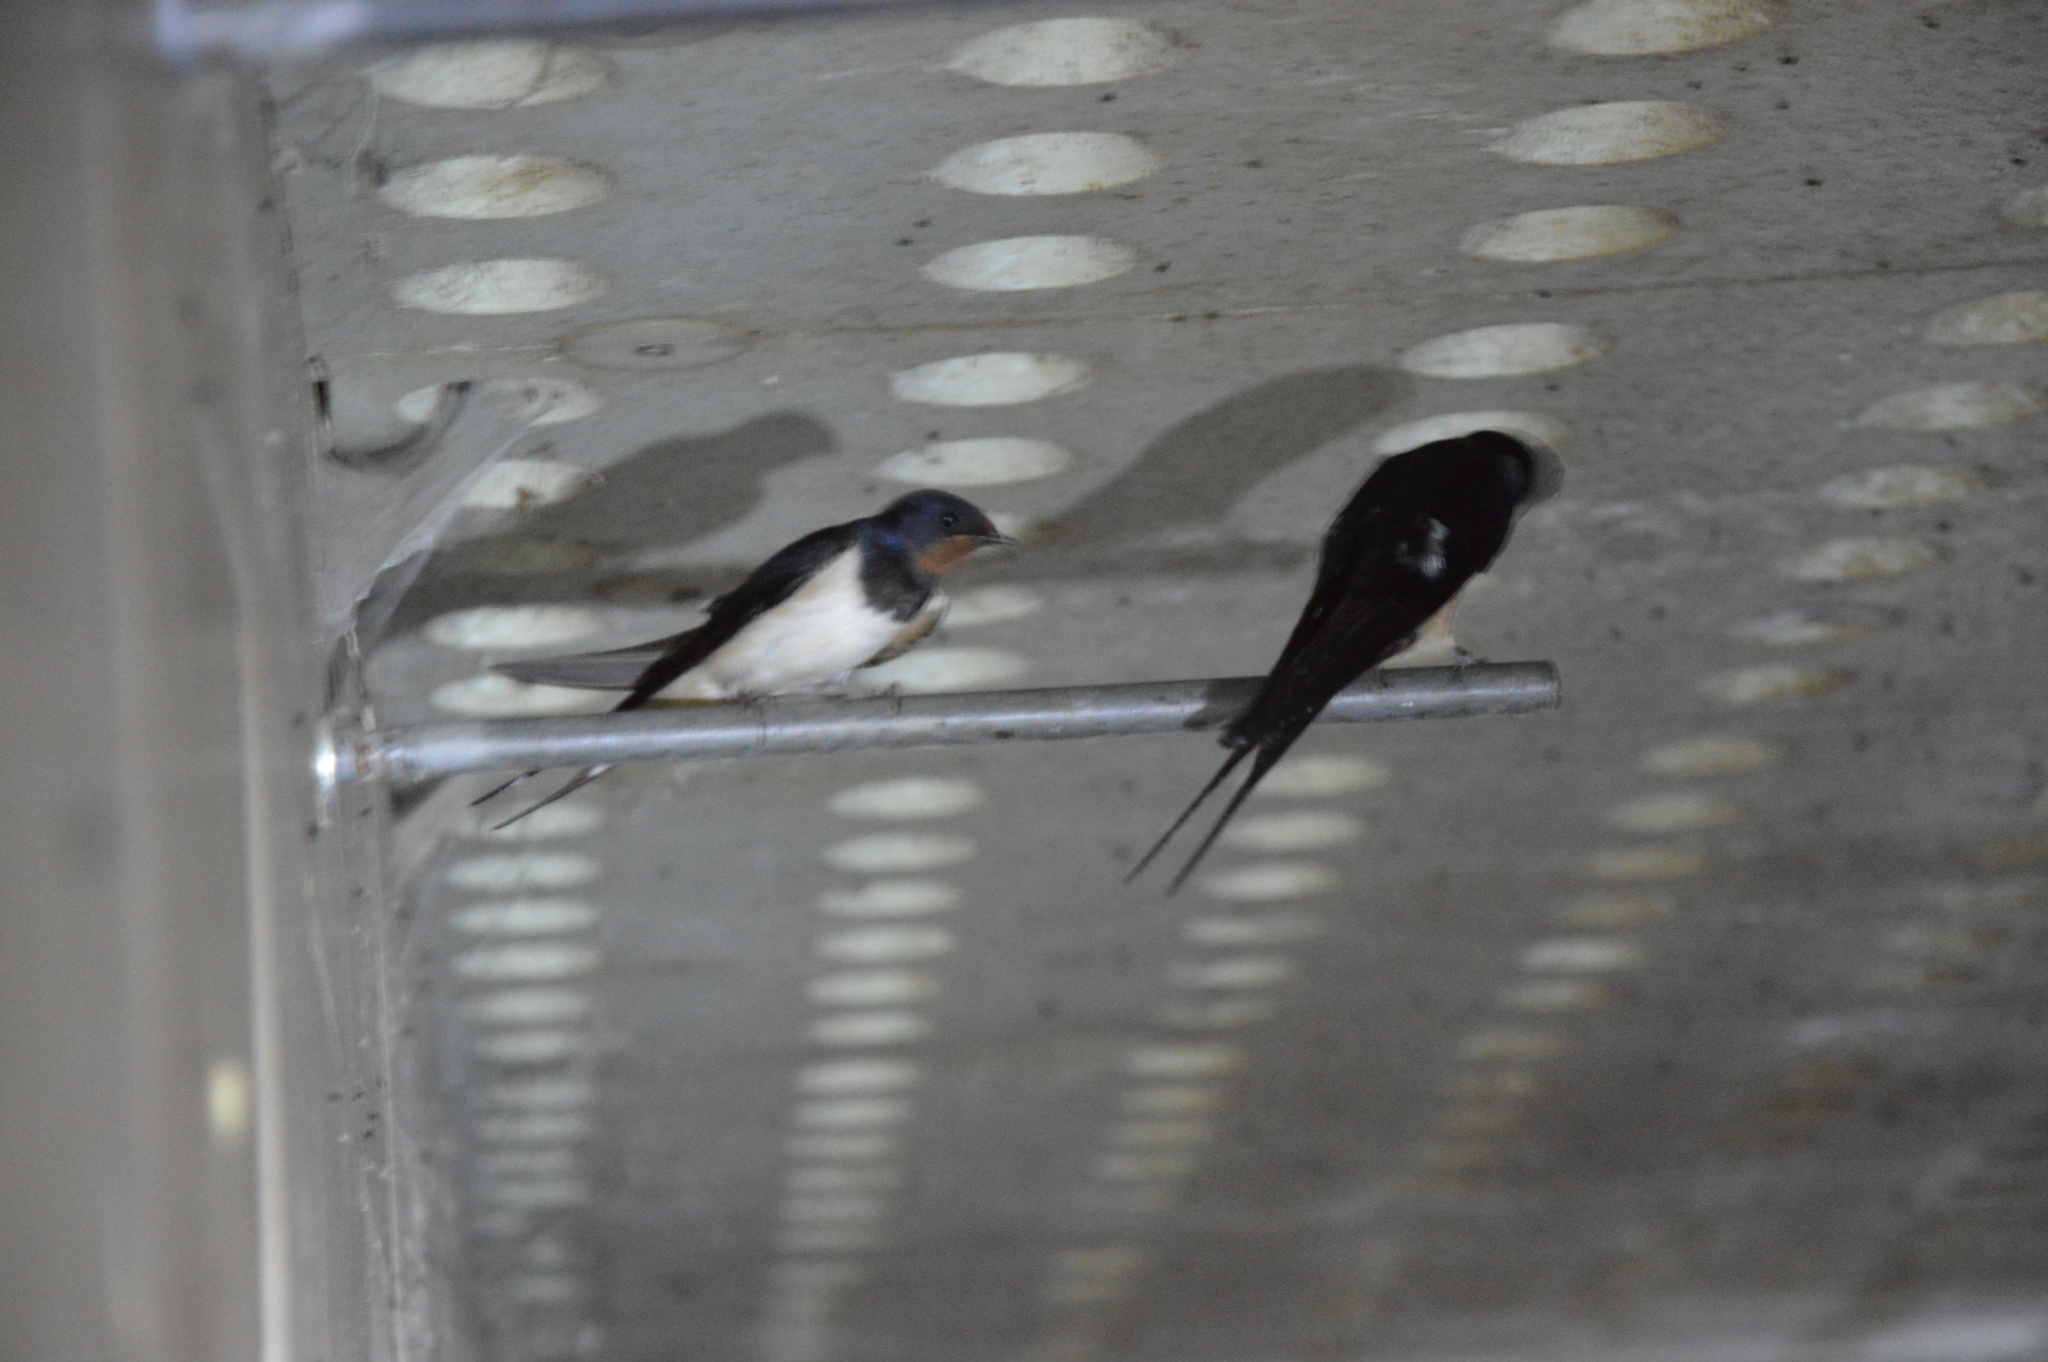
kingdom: Animalia
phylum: Chordata
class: Aves
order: Passeriformes
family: Hirundinidae
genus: Hirundo
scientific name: Hirundo rustica
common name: Barn swallow
